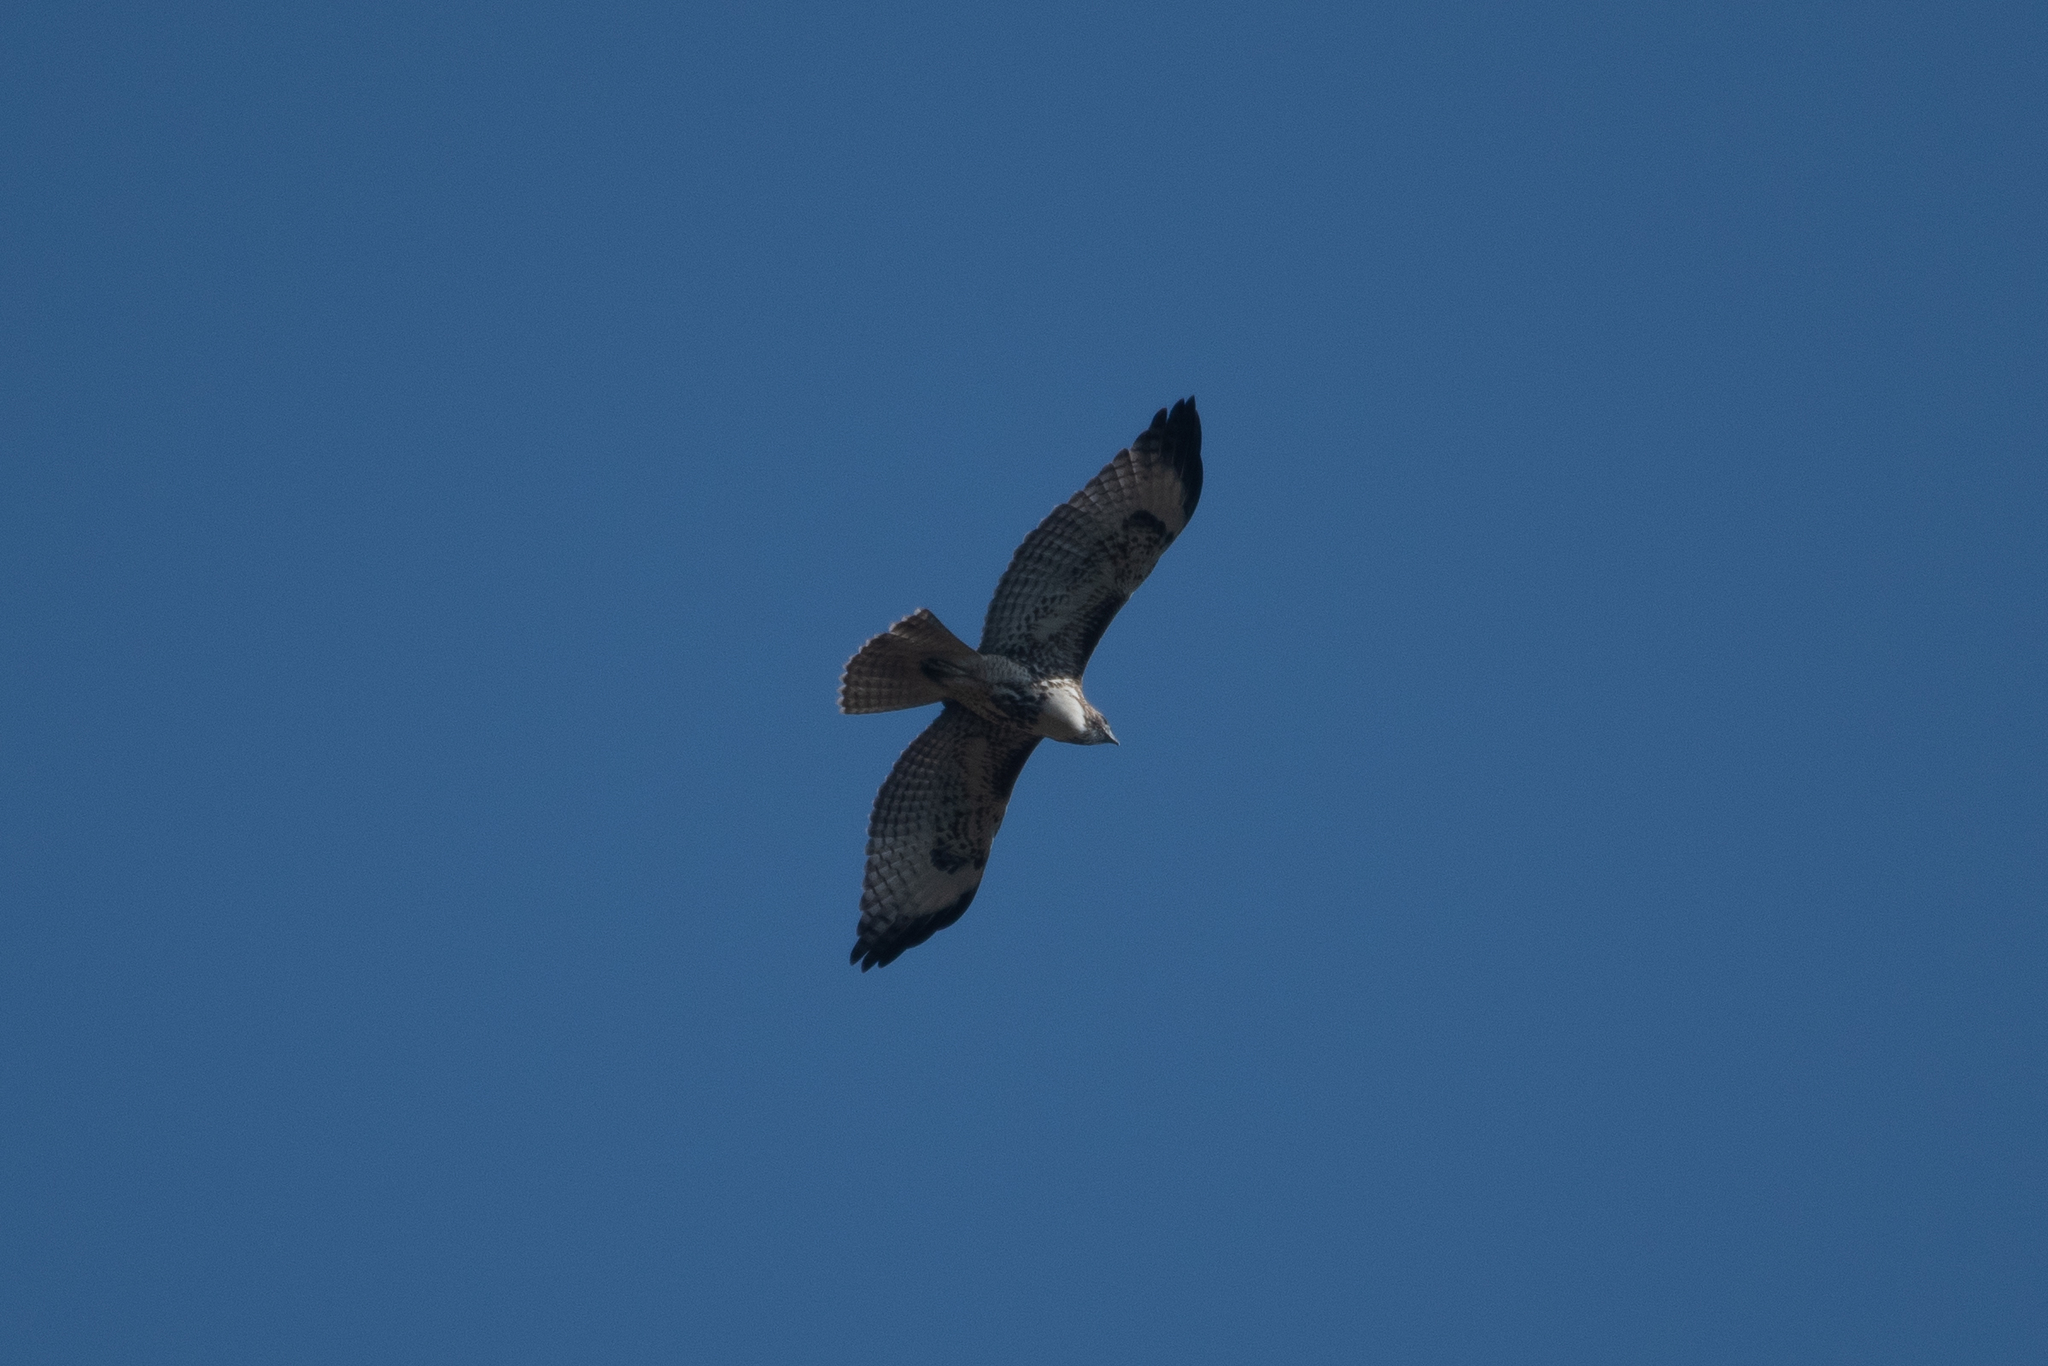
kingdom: Animalia
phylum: Chordata
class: Aves
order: Accipitriformes
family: Accipitridae
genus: Buteo
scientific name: Buteo jamaicensis
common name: Red-tailed hawk
